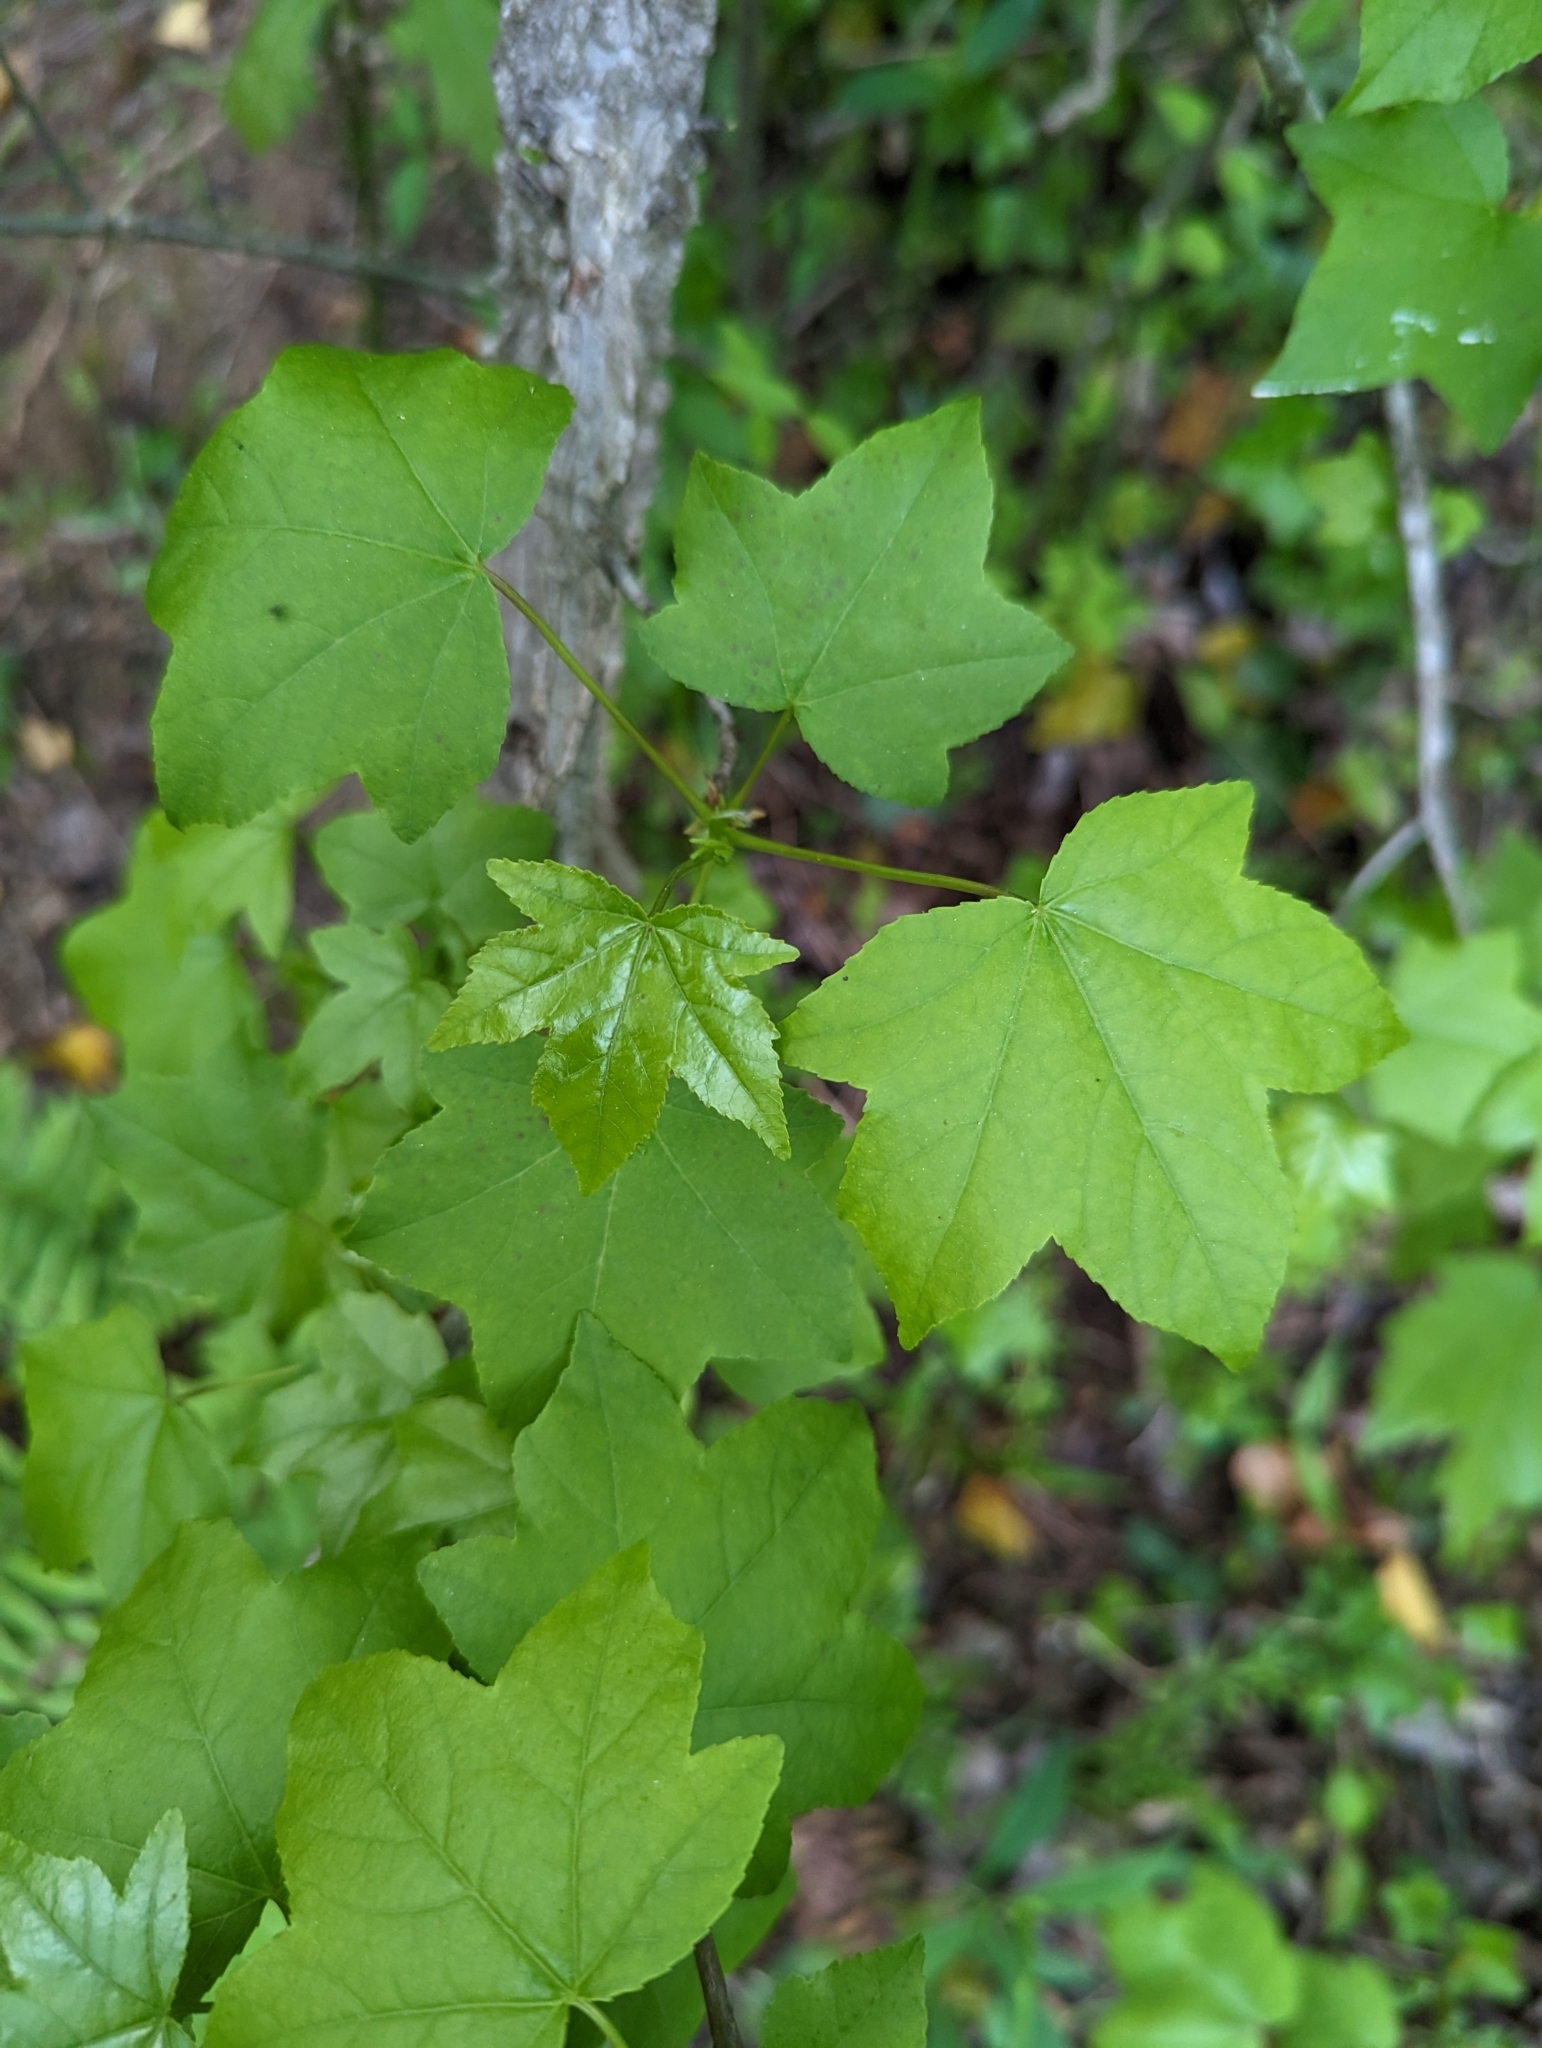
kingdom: Plantae
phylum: Tracheophyta
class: Magnoliopsida
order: Saxifragales
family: Altingiaceae
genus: Liquidambar
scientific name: Liquidambar styraciflua
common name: Sweet gum
